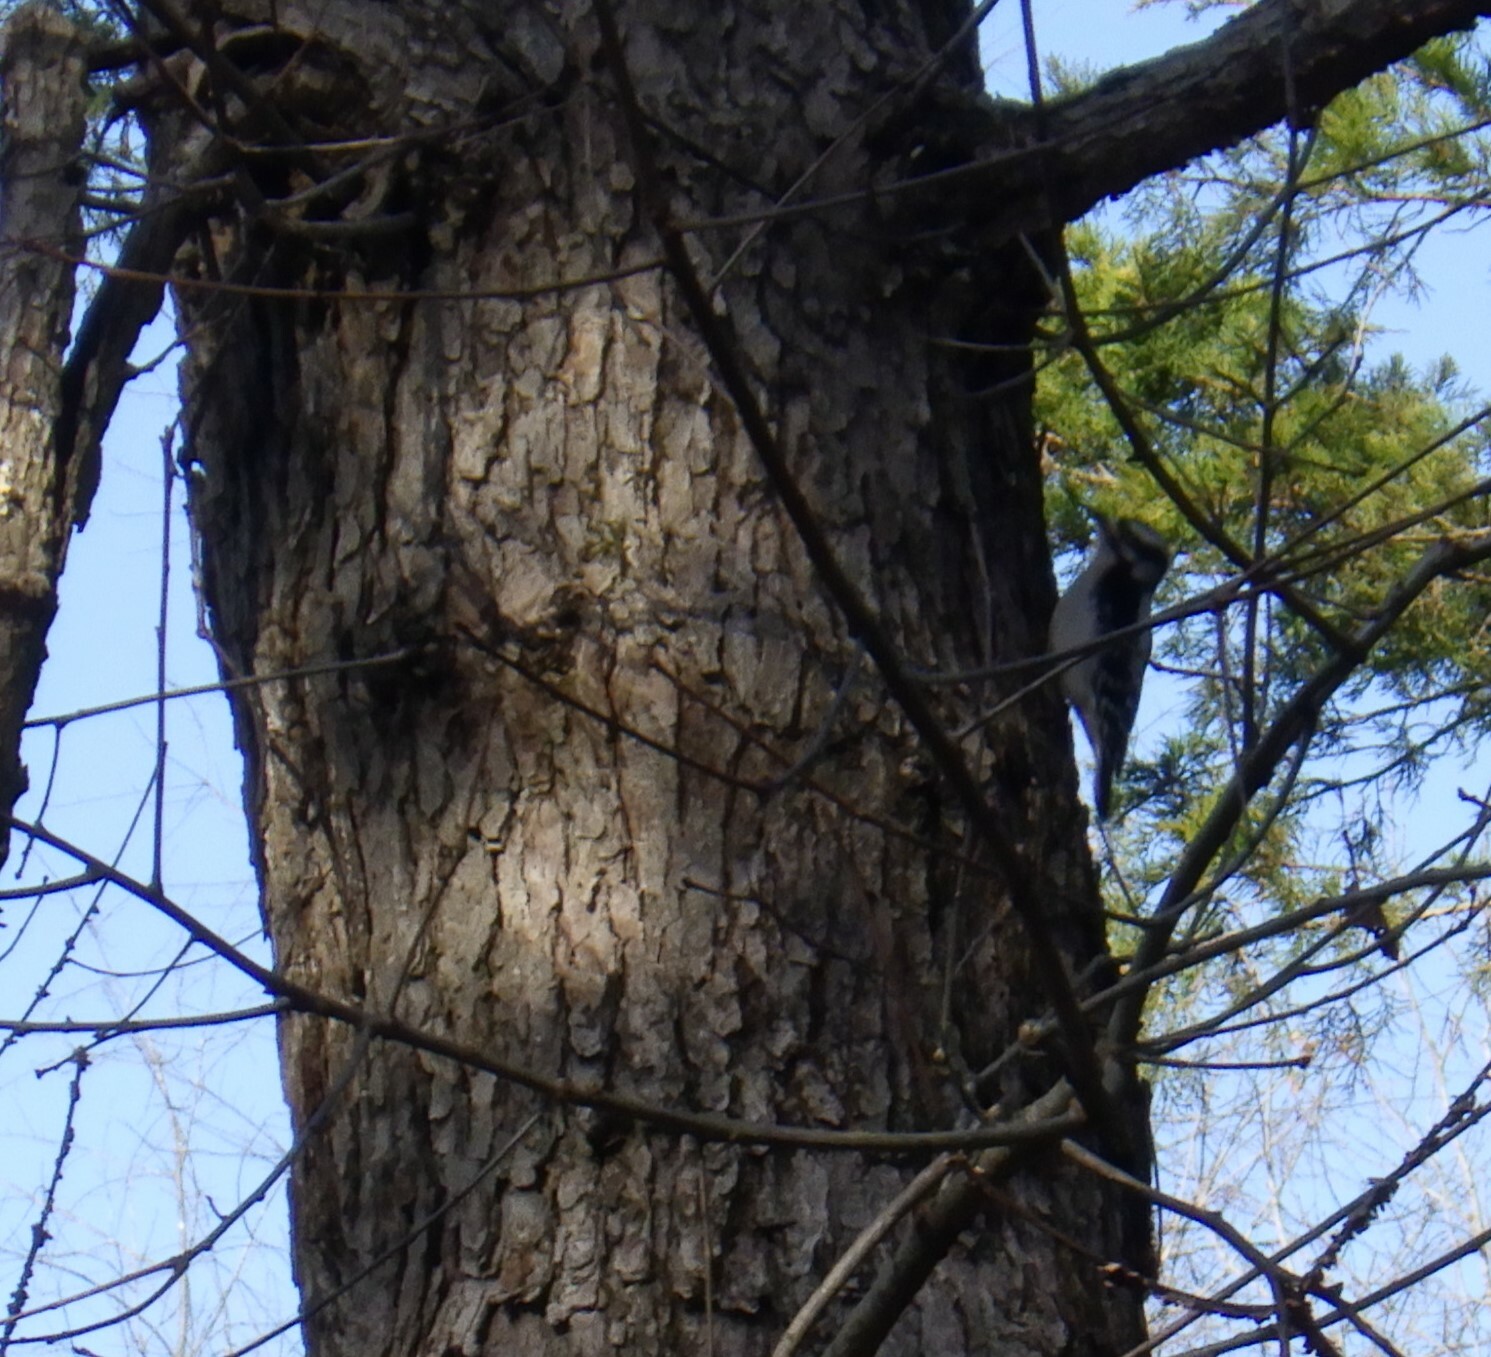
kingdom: Animalia
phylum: Chordata
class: Aves
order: Piciformes
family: Picidae
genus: Dryobates
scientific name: Dryobates pubescens
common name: Downy woodpecker
